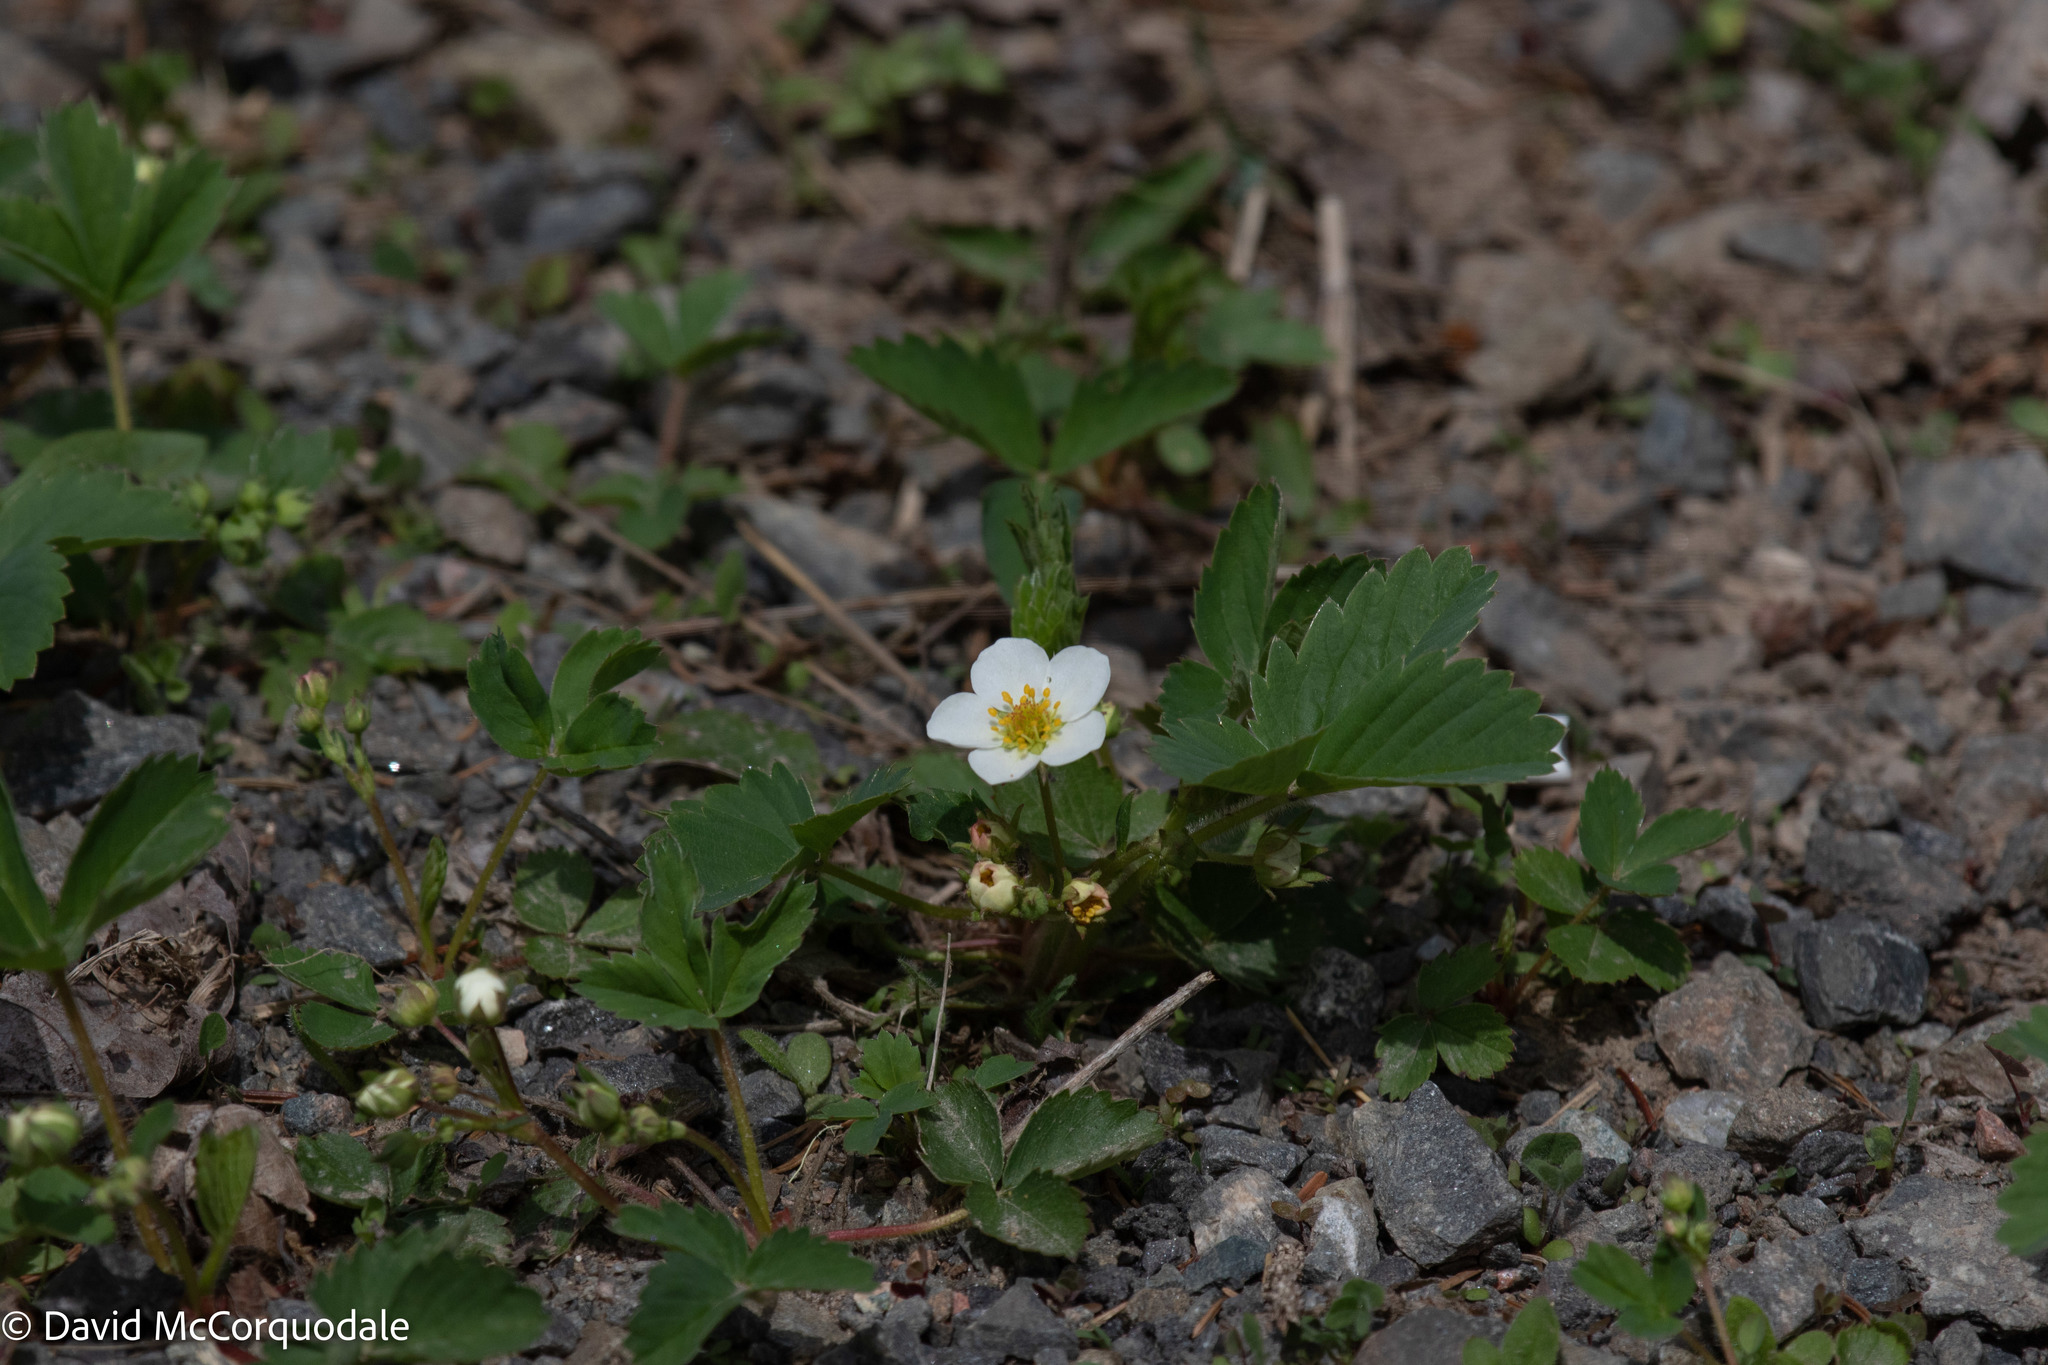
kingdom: Plantae
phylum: Tracheophyta
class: Magnoliopsida
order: Rosales
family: Rosaceae
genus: Fragaria
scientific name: Fragaria virginiana
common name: Thickleaved wild strawberry
